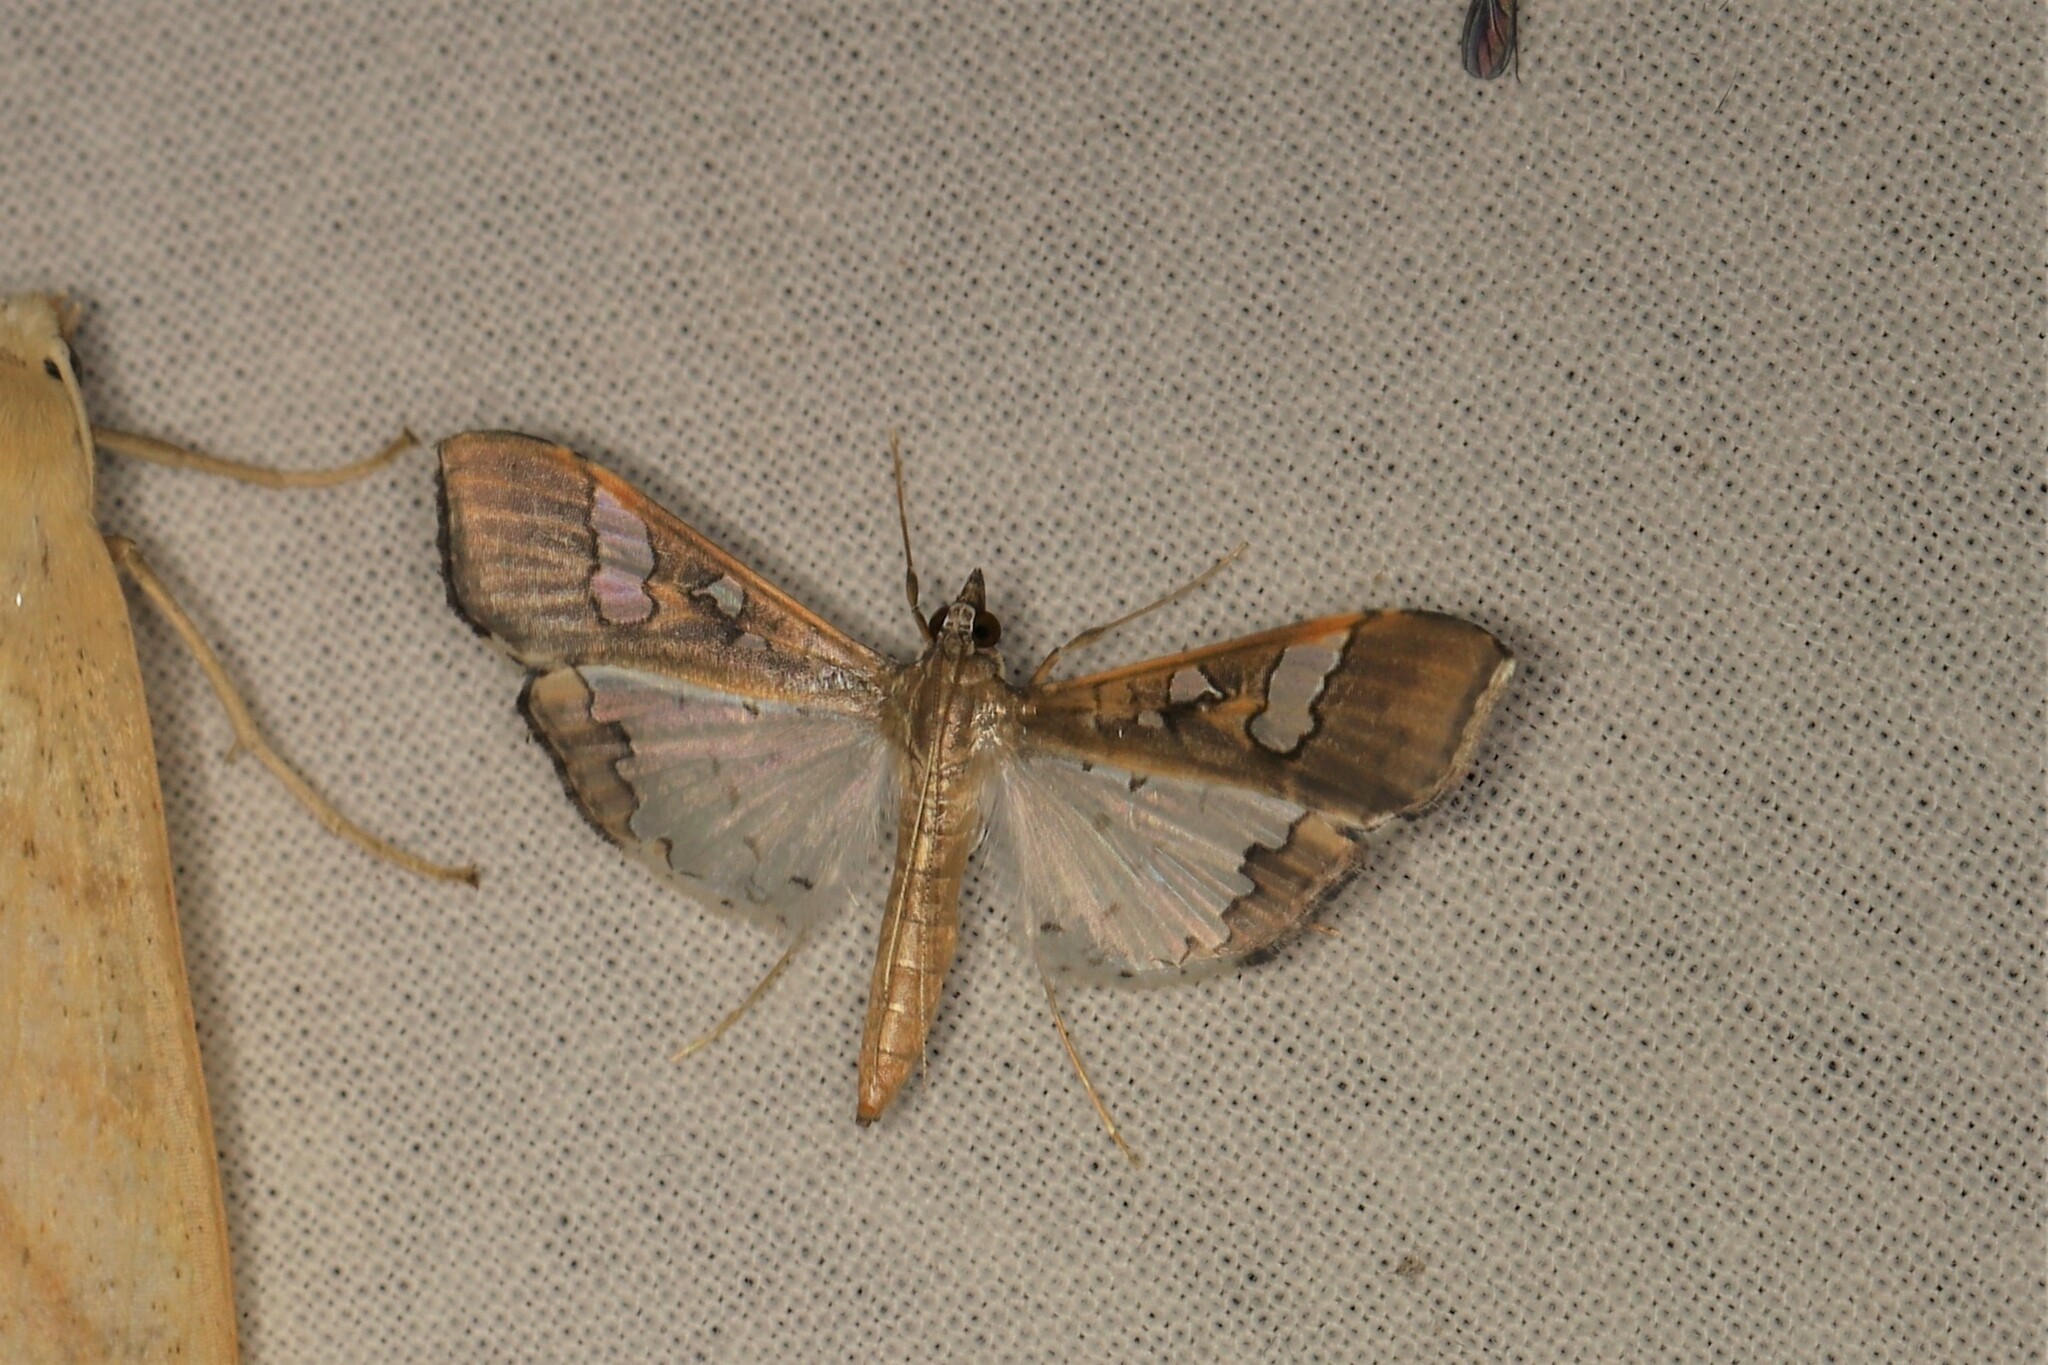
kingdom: Animalia
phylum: Arthropoda
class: Insecta
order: Lepidoptera
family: Crambidae
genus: Maruca
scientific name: Maruca vitrata
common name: Maruca pod borer
